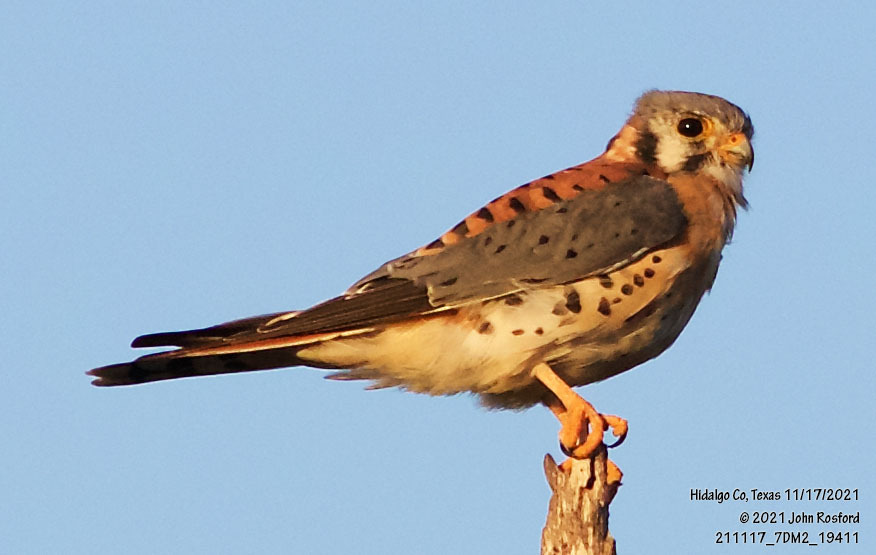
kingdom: Animalia
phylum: Chordata
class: Aves
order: Falconiformes
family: Falconidae
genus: Falco
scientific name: Falco sparverius
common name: American kestrel
